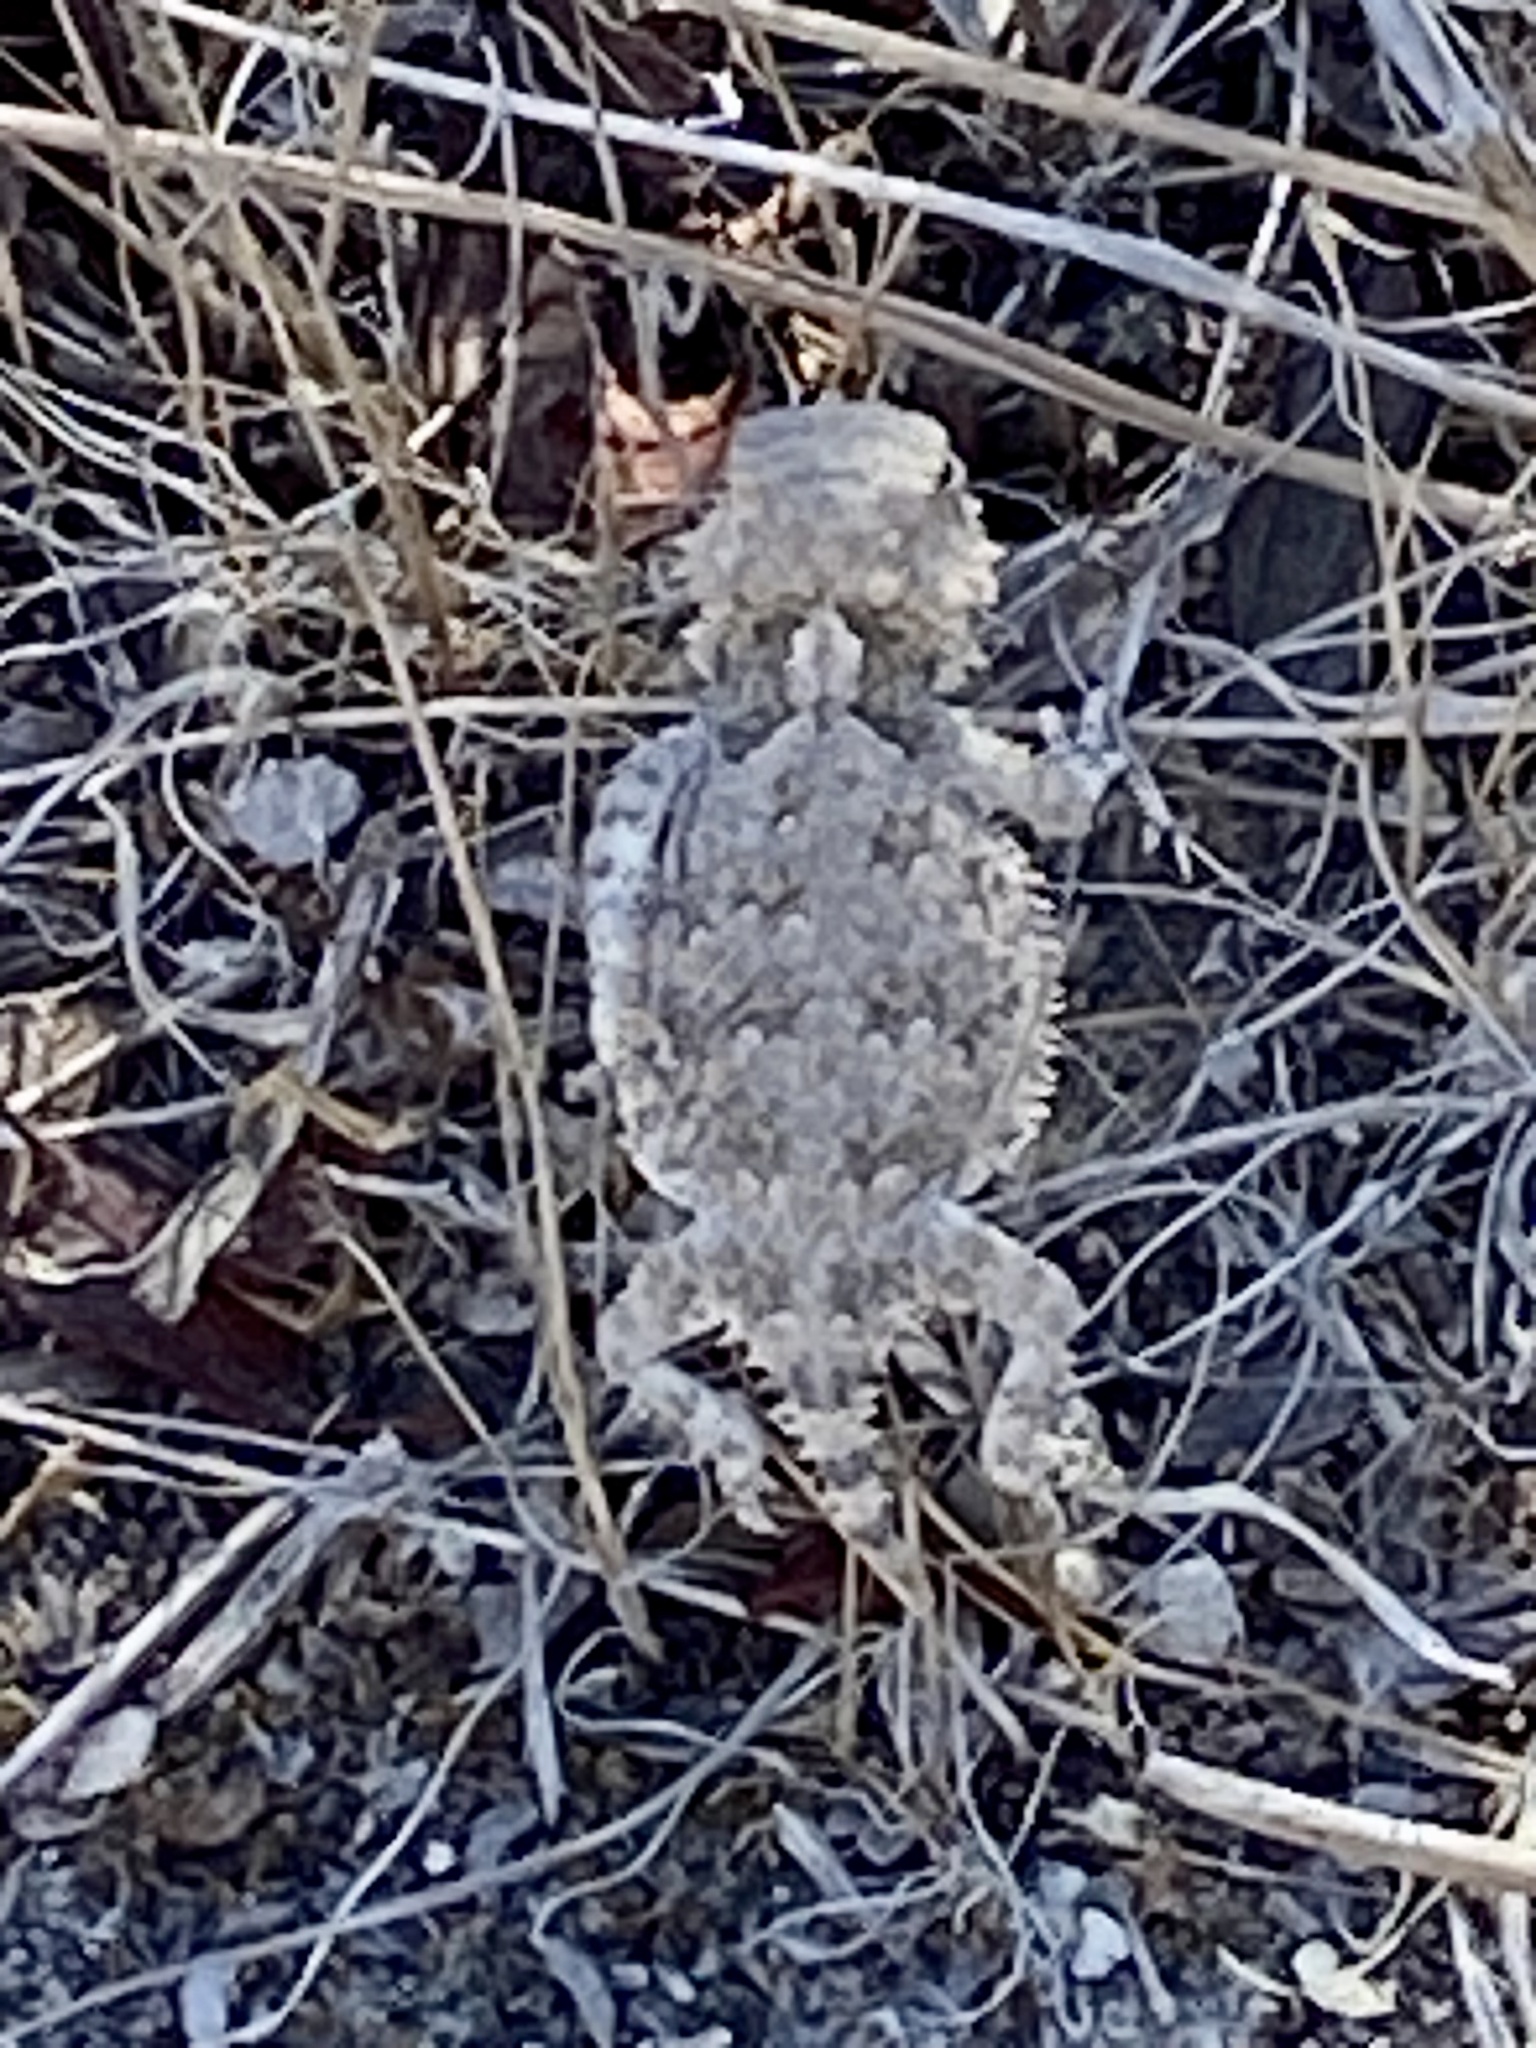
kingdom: Animalia
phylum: Chordata
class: Squamata
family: Phrynosomatidae
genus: Phrynosoma
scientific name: Phrynosoma blainvillii
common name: San diego horned lizard
